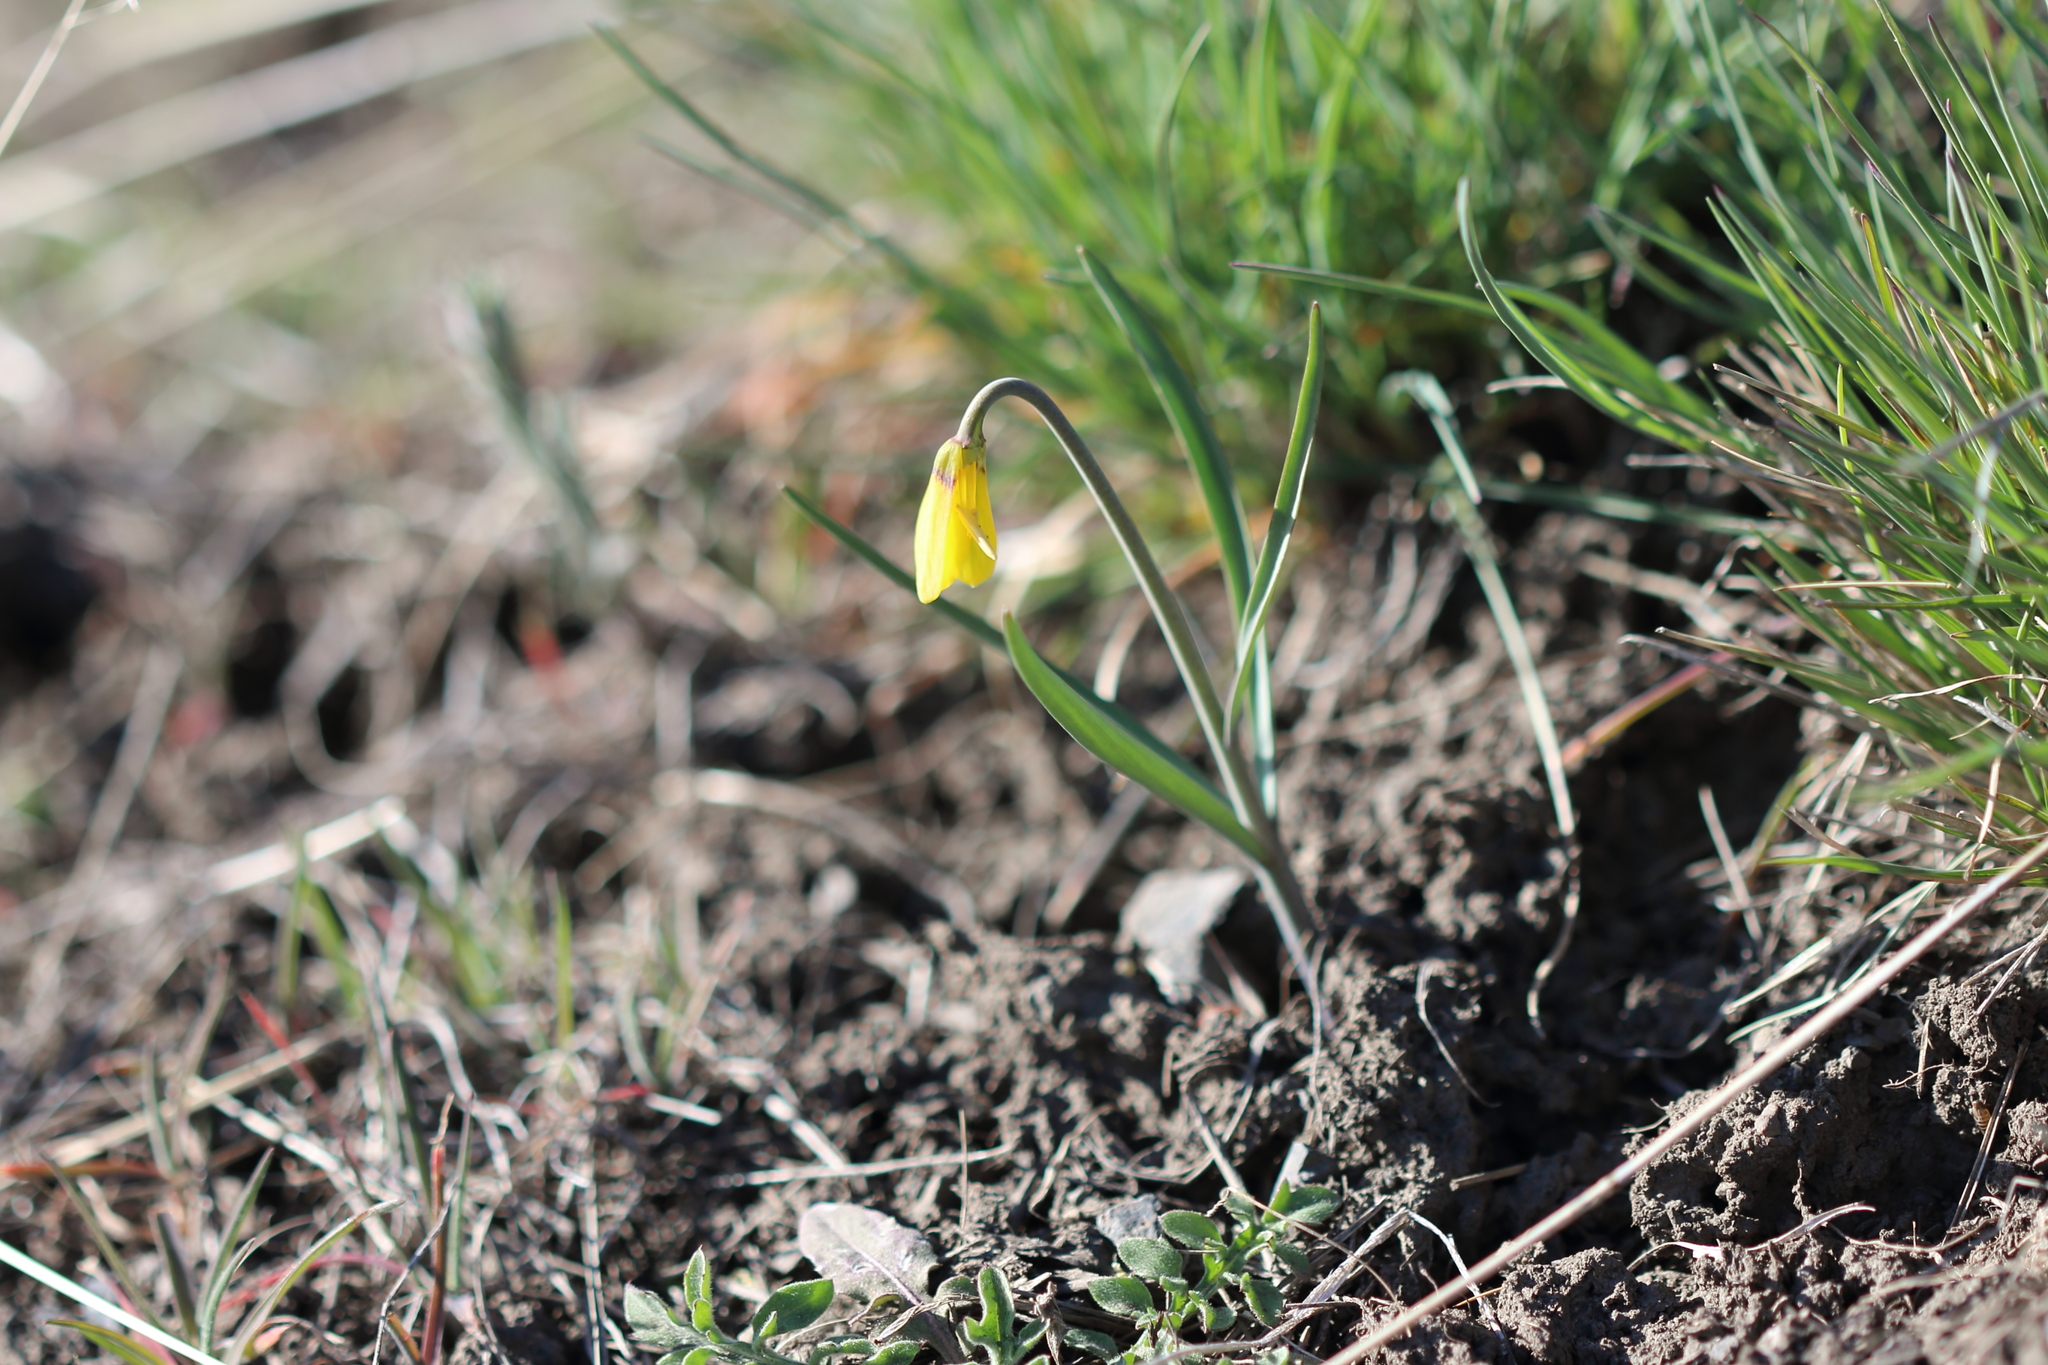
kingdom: Plantae
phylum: Tracheophyta
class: Liliopsida
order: Liliales
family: Liliaceae
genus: Fritillaria
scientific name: Fritillaria pudica
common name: Yellow fritillary
